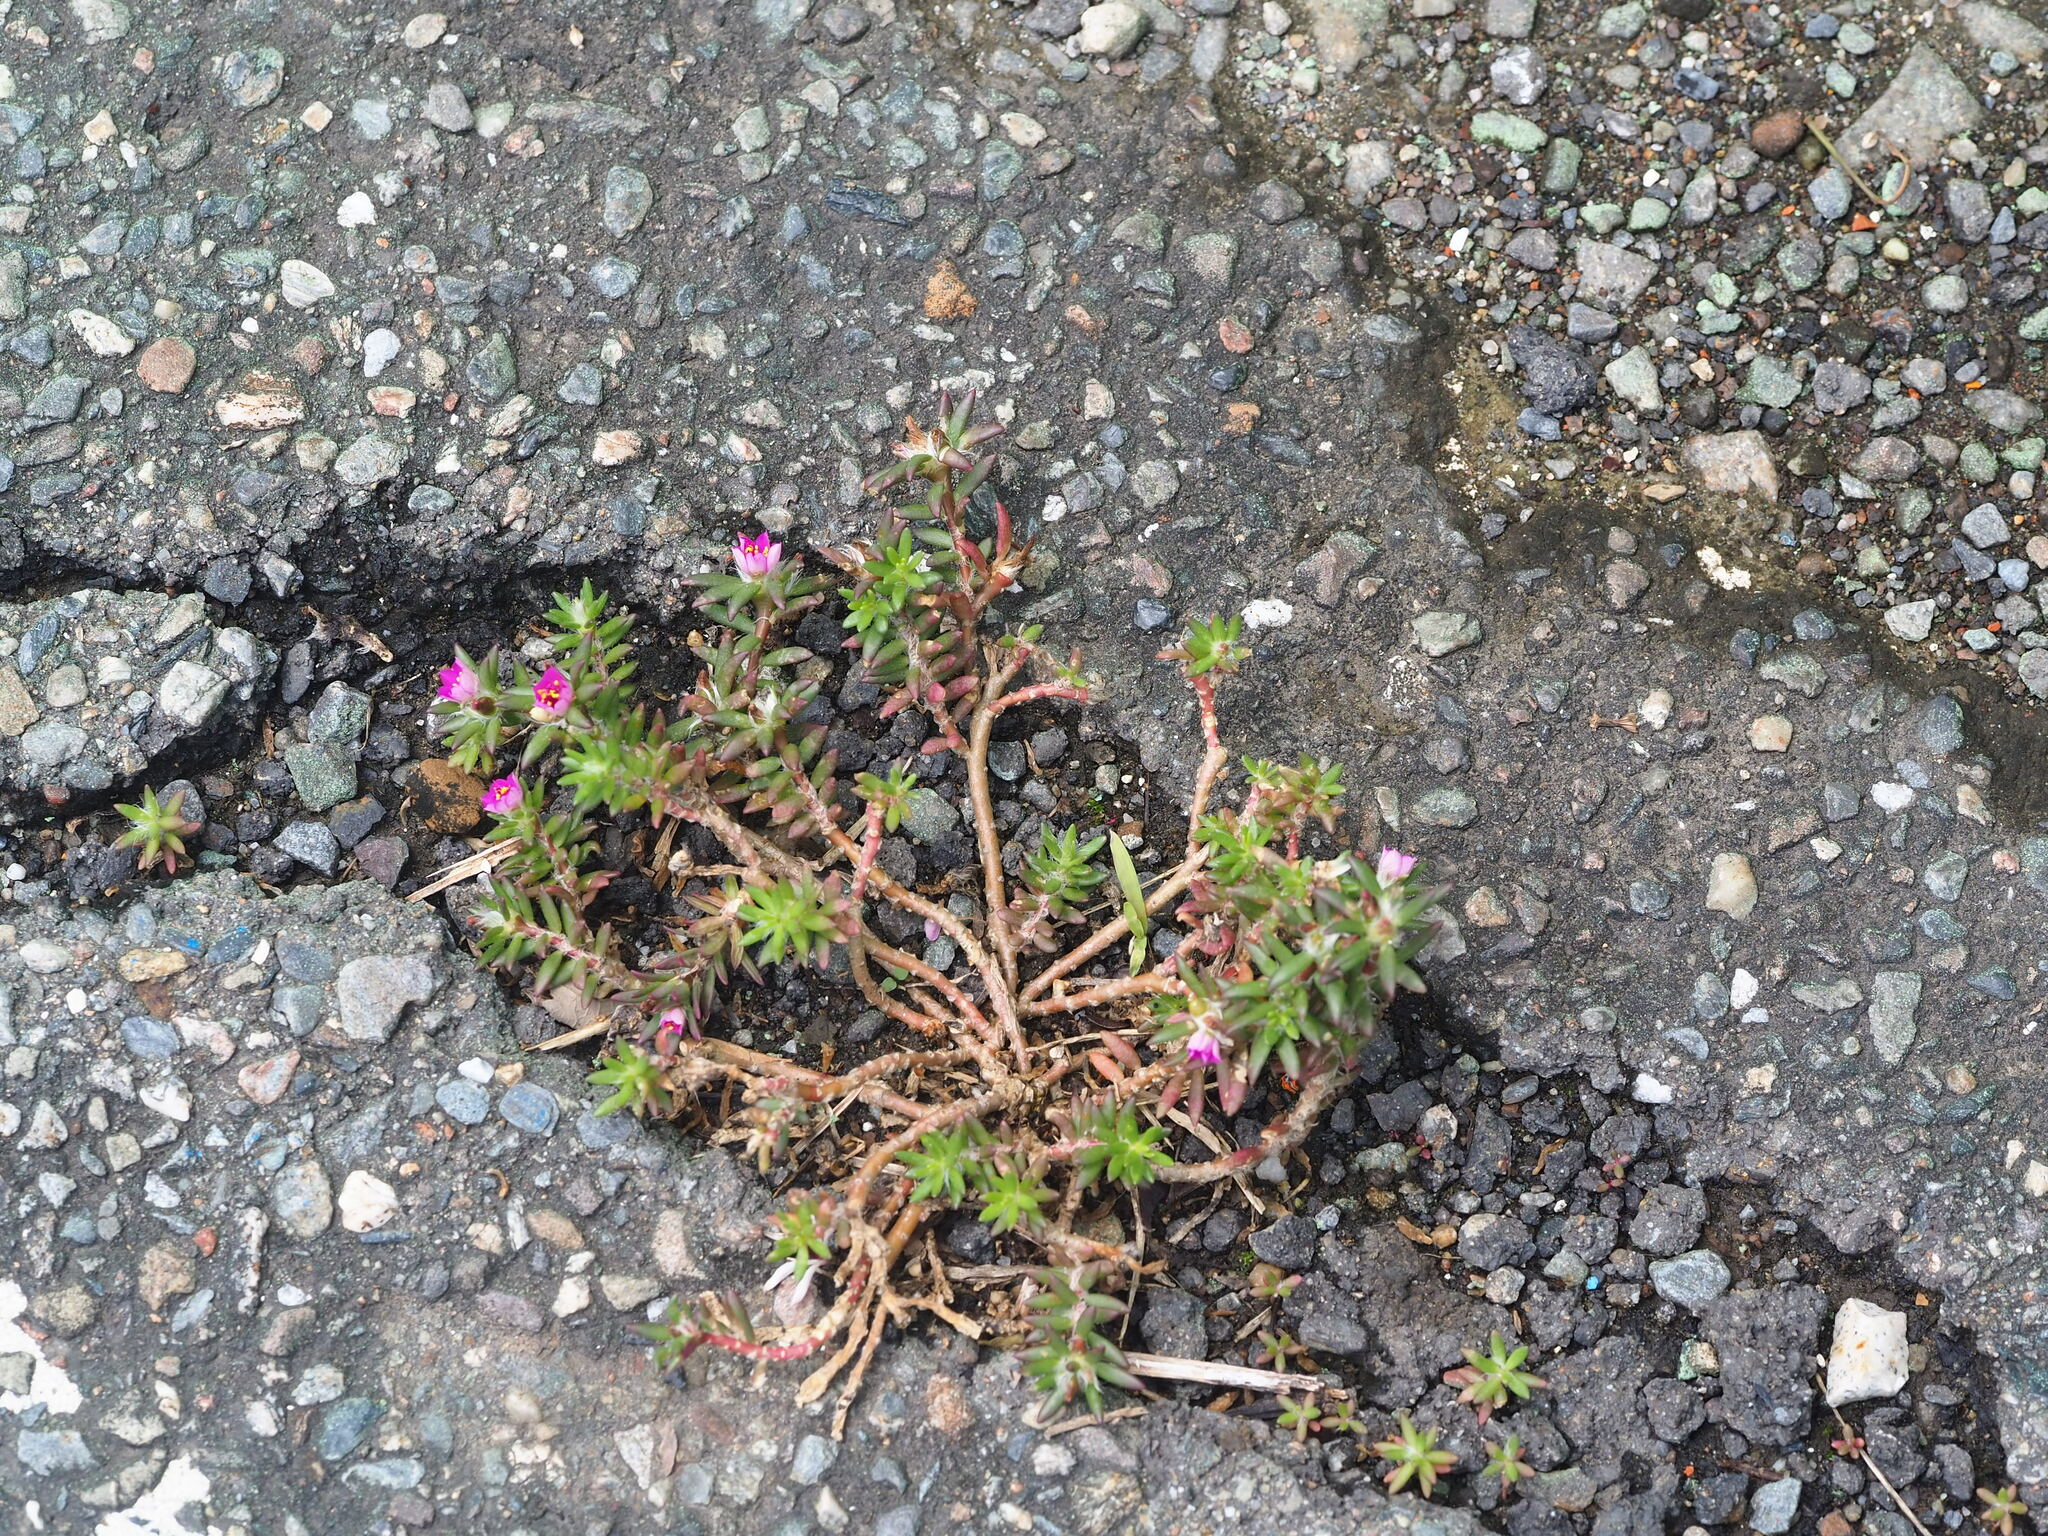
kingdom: Plantae
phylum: Tracheophyta
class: Magnoliopsida
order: Caryophyllales
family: Portulacaceae
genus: Portulaca
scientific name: Portulaca pilosa
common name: Kiss me quick
